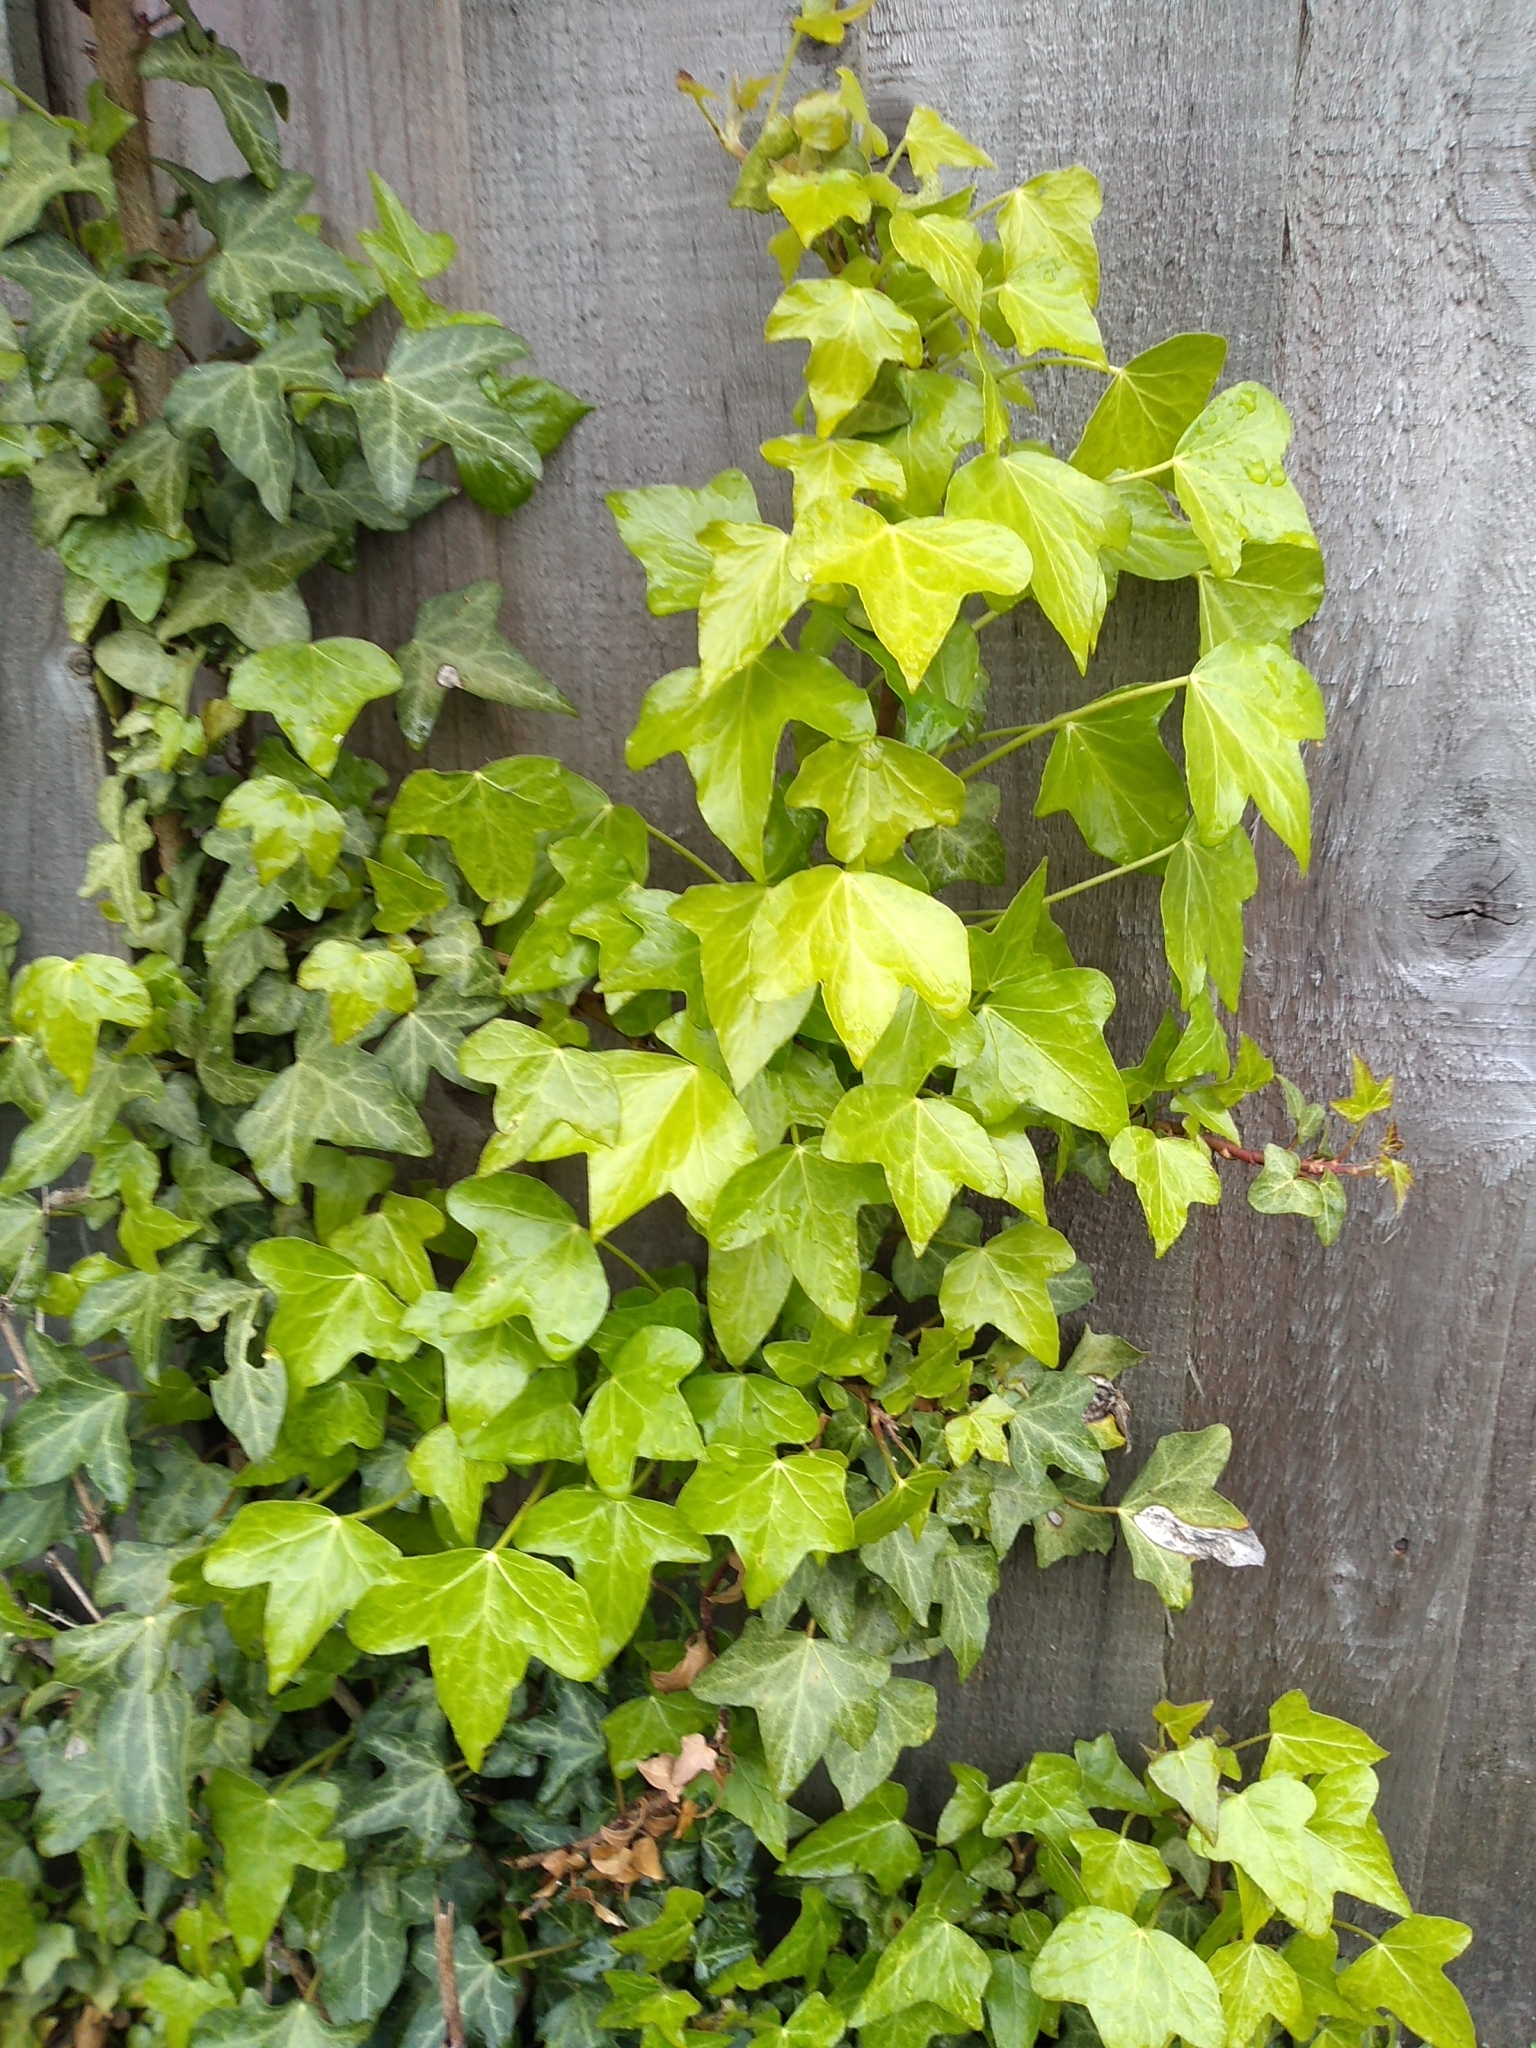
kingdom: Plantae
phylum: Tracheophyta
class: Magnoliopsida
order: Apiales
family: Araliaceae
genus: Hedera
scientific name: Hedera helix
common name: Ivy
